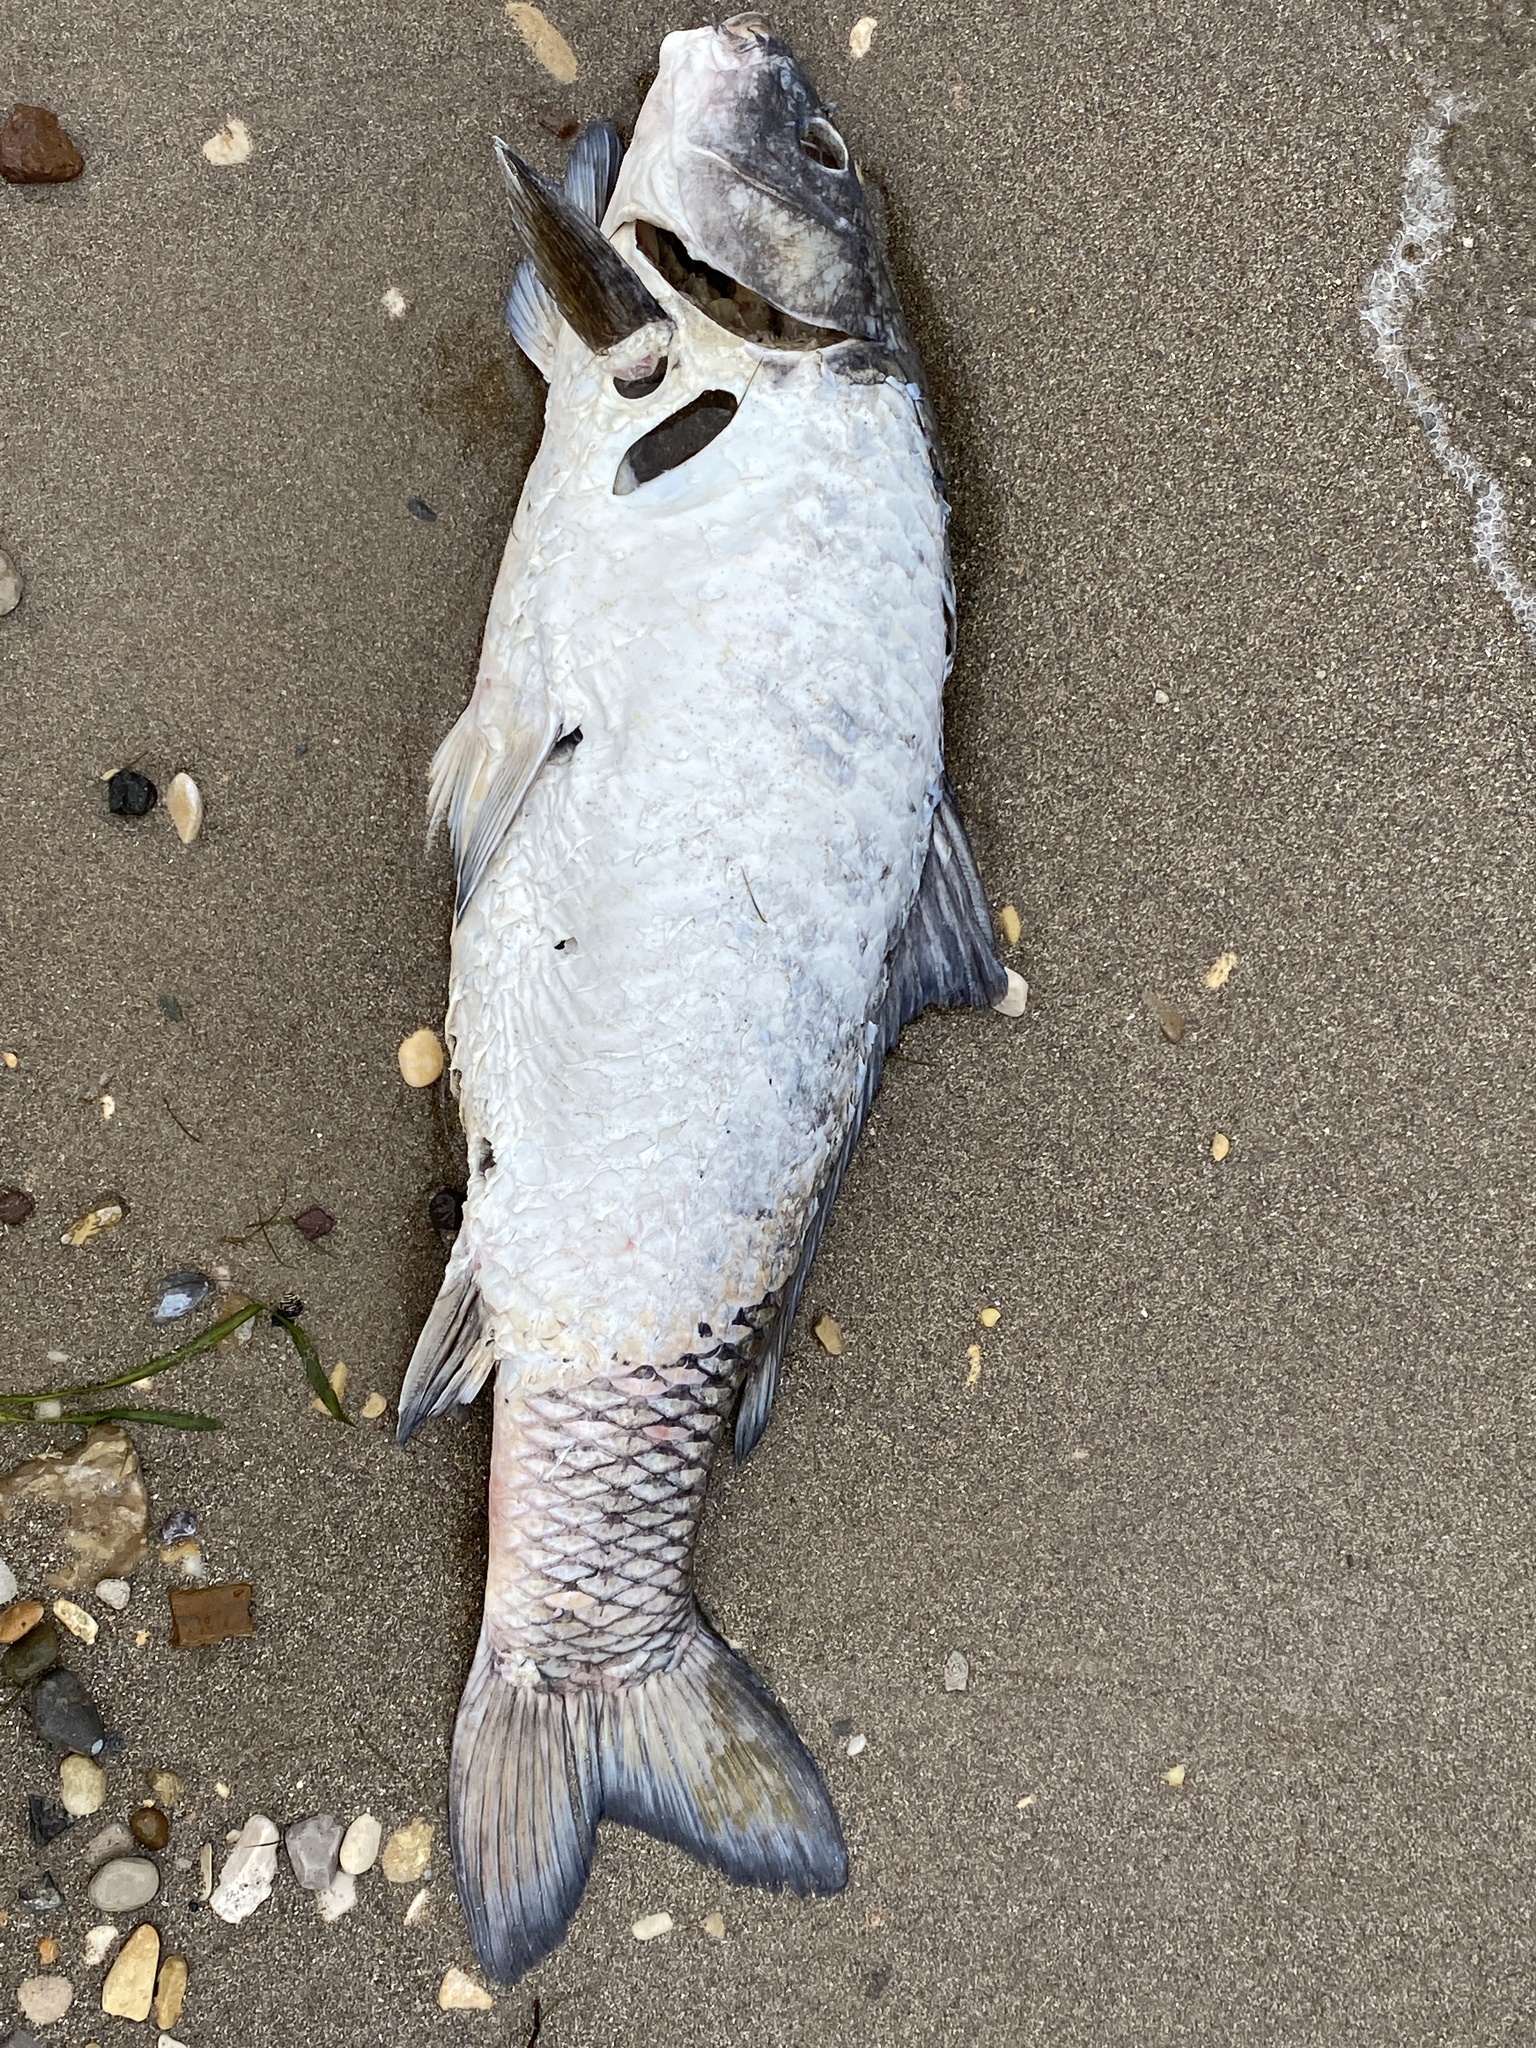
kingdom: Animalia
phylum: Chordata
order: Cypriniformes
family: Cyprinidae
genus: Cyprinus
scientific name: Cyprinus carpio
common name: Common carp
